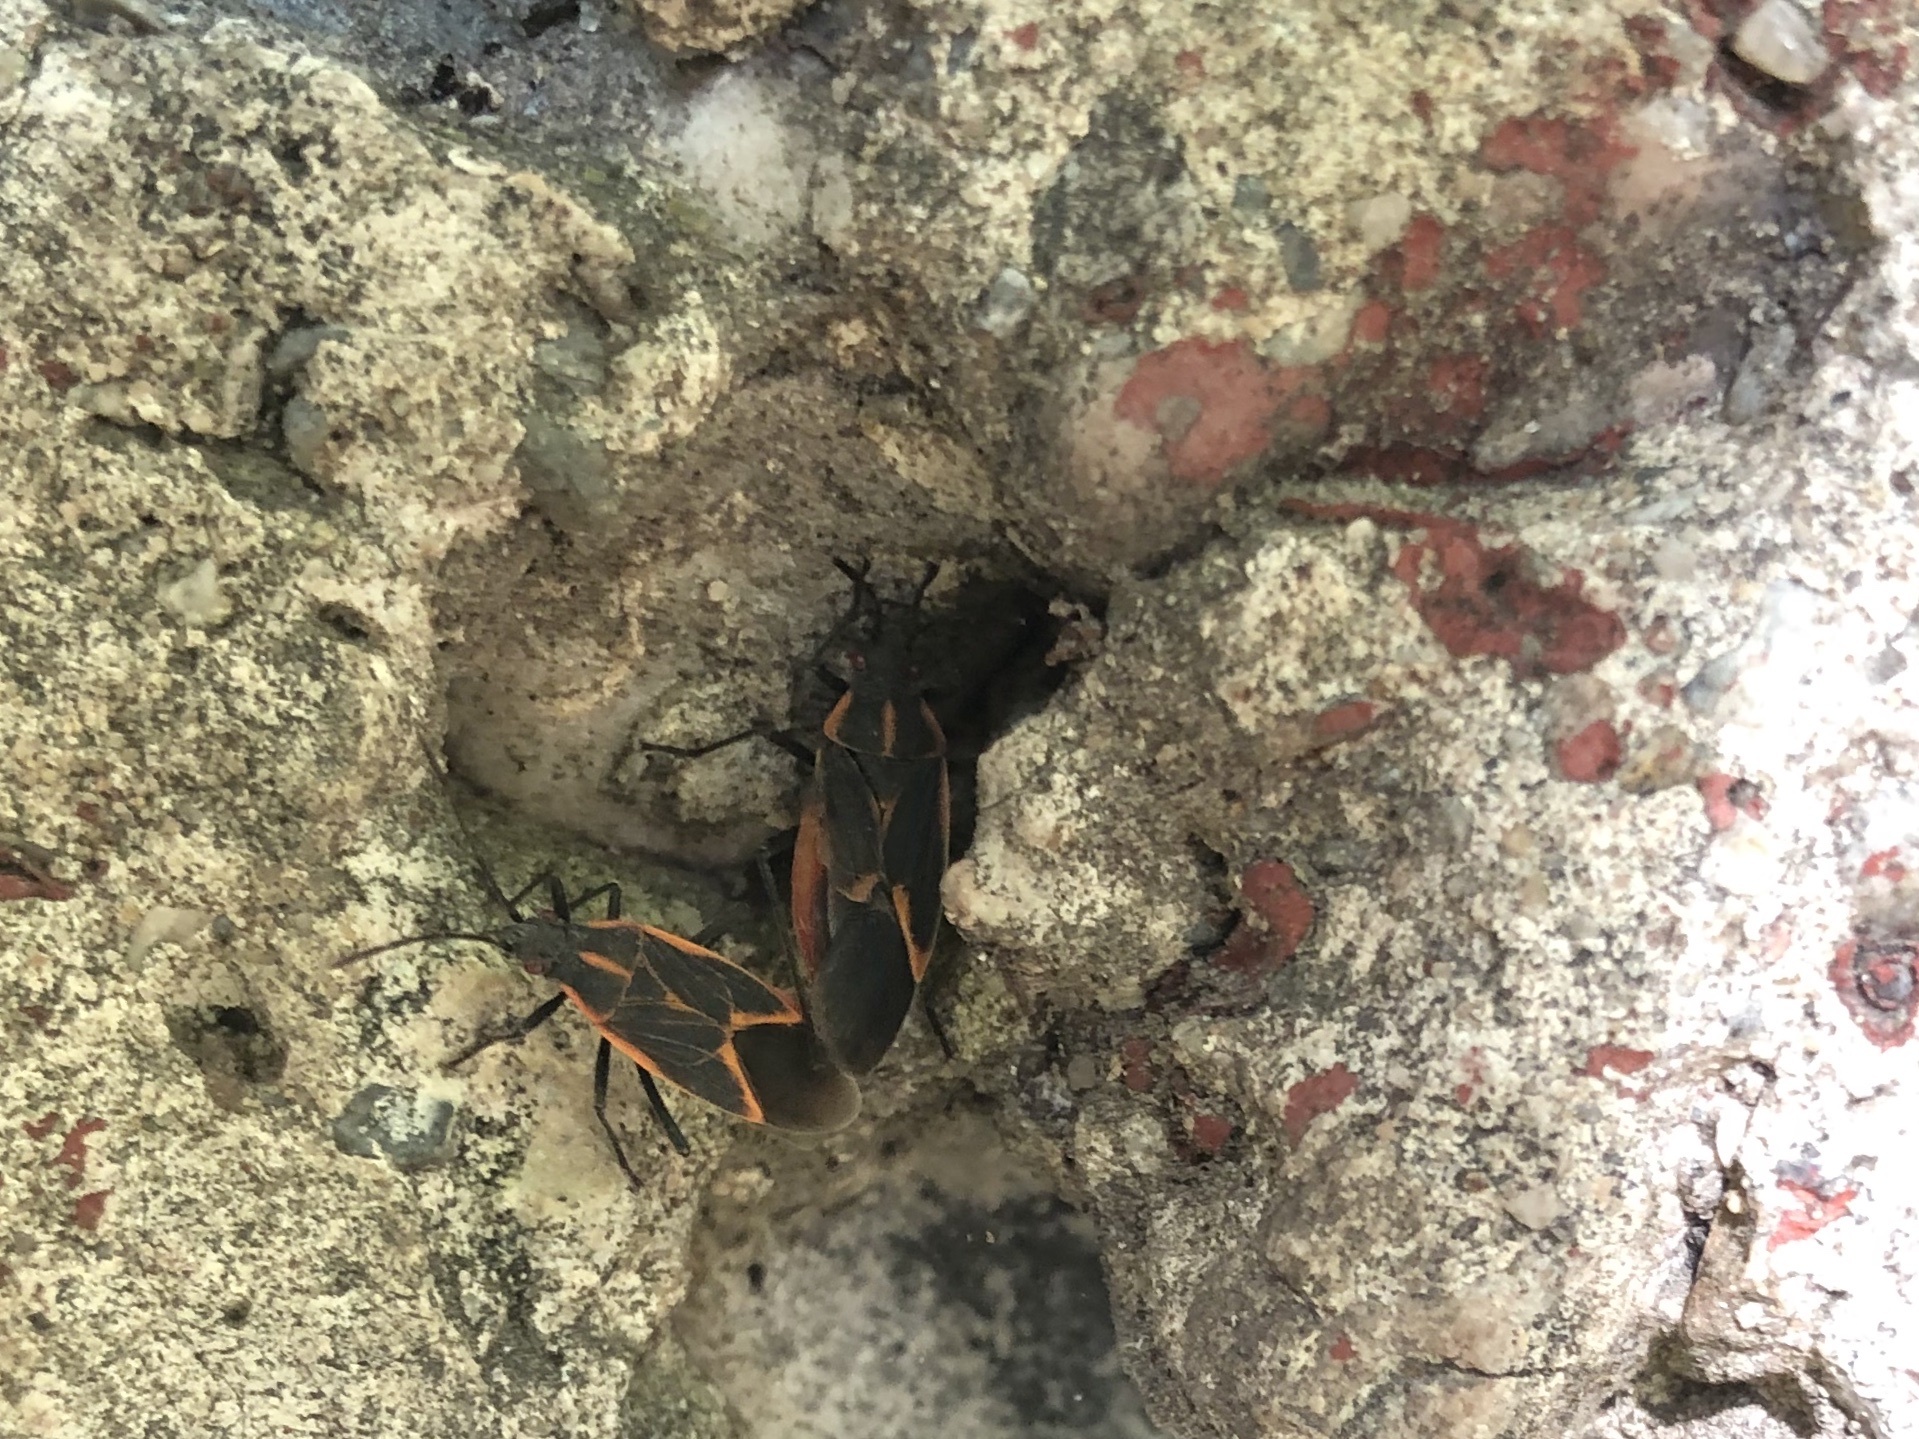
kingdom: Animalia
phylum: Arthropoda
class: Insecta
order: Hemiptera
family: Rhopalidae
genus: Boisea
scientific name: Boisea trivittata
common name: Boxelder bug
